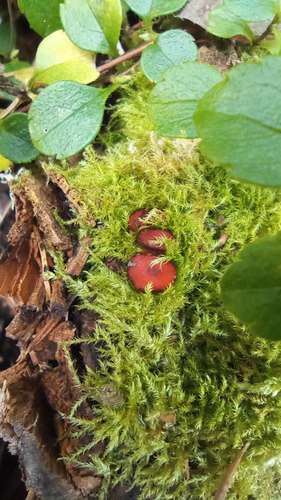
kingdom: Fungi
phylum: Ascomycota
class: Pezizomycetes
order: Pezizales
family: Pyronemataceae
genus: Scutellinia
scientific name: Scutellinia
